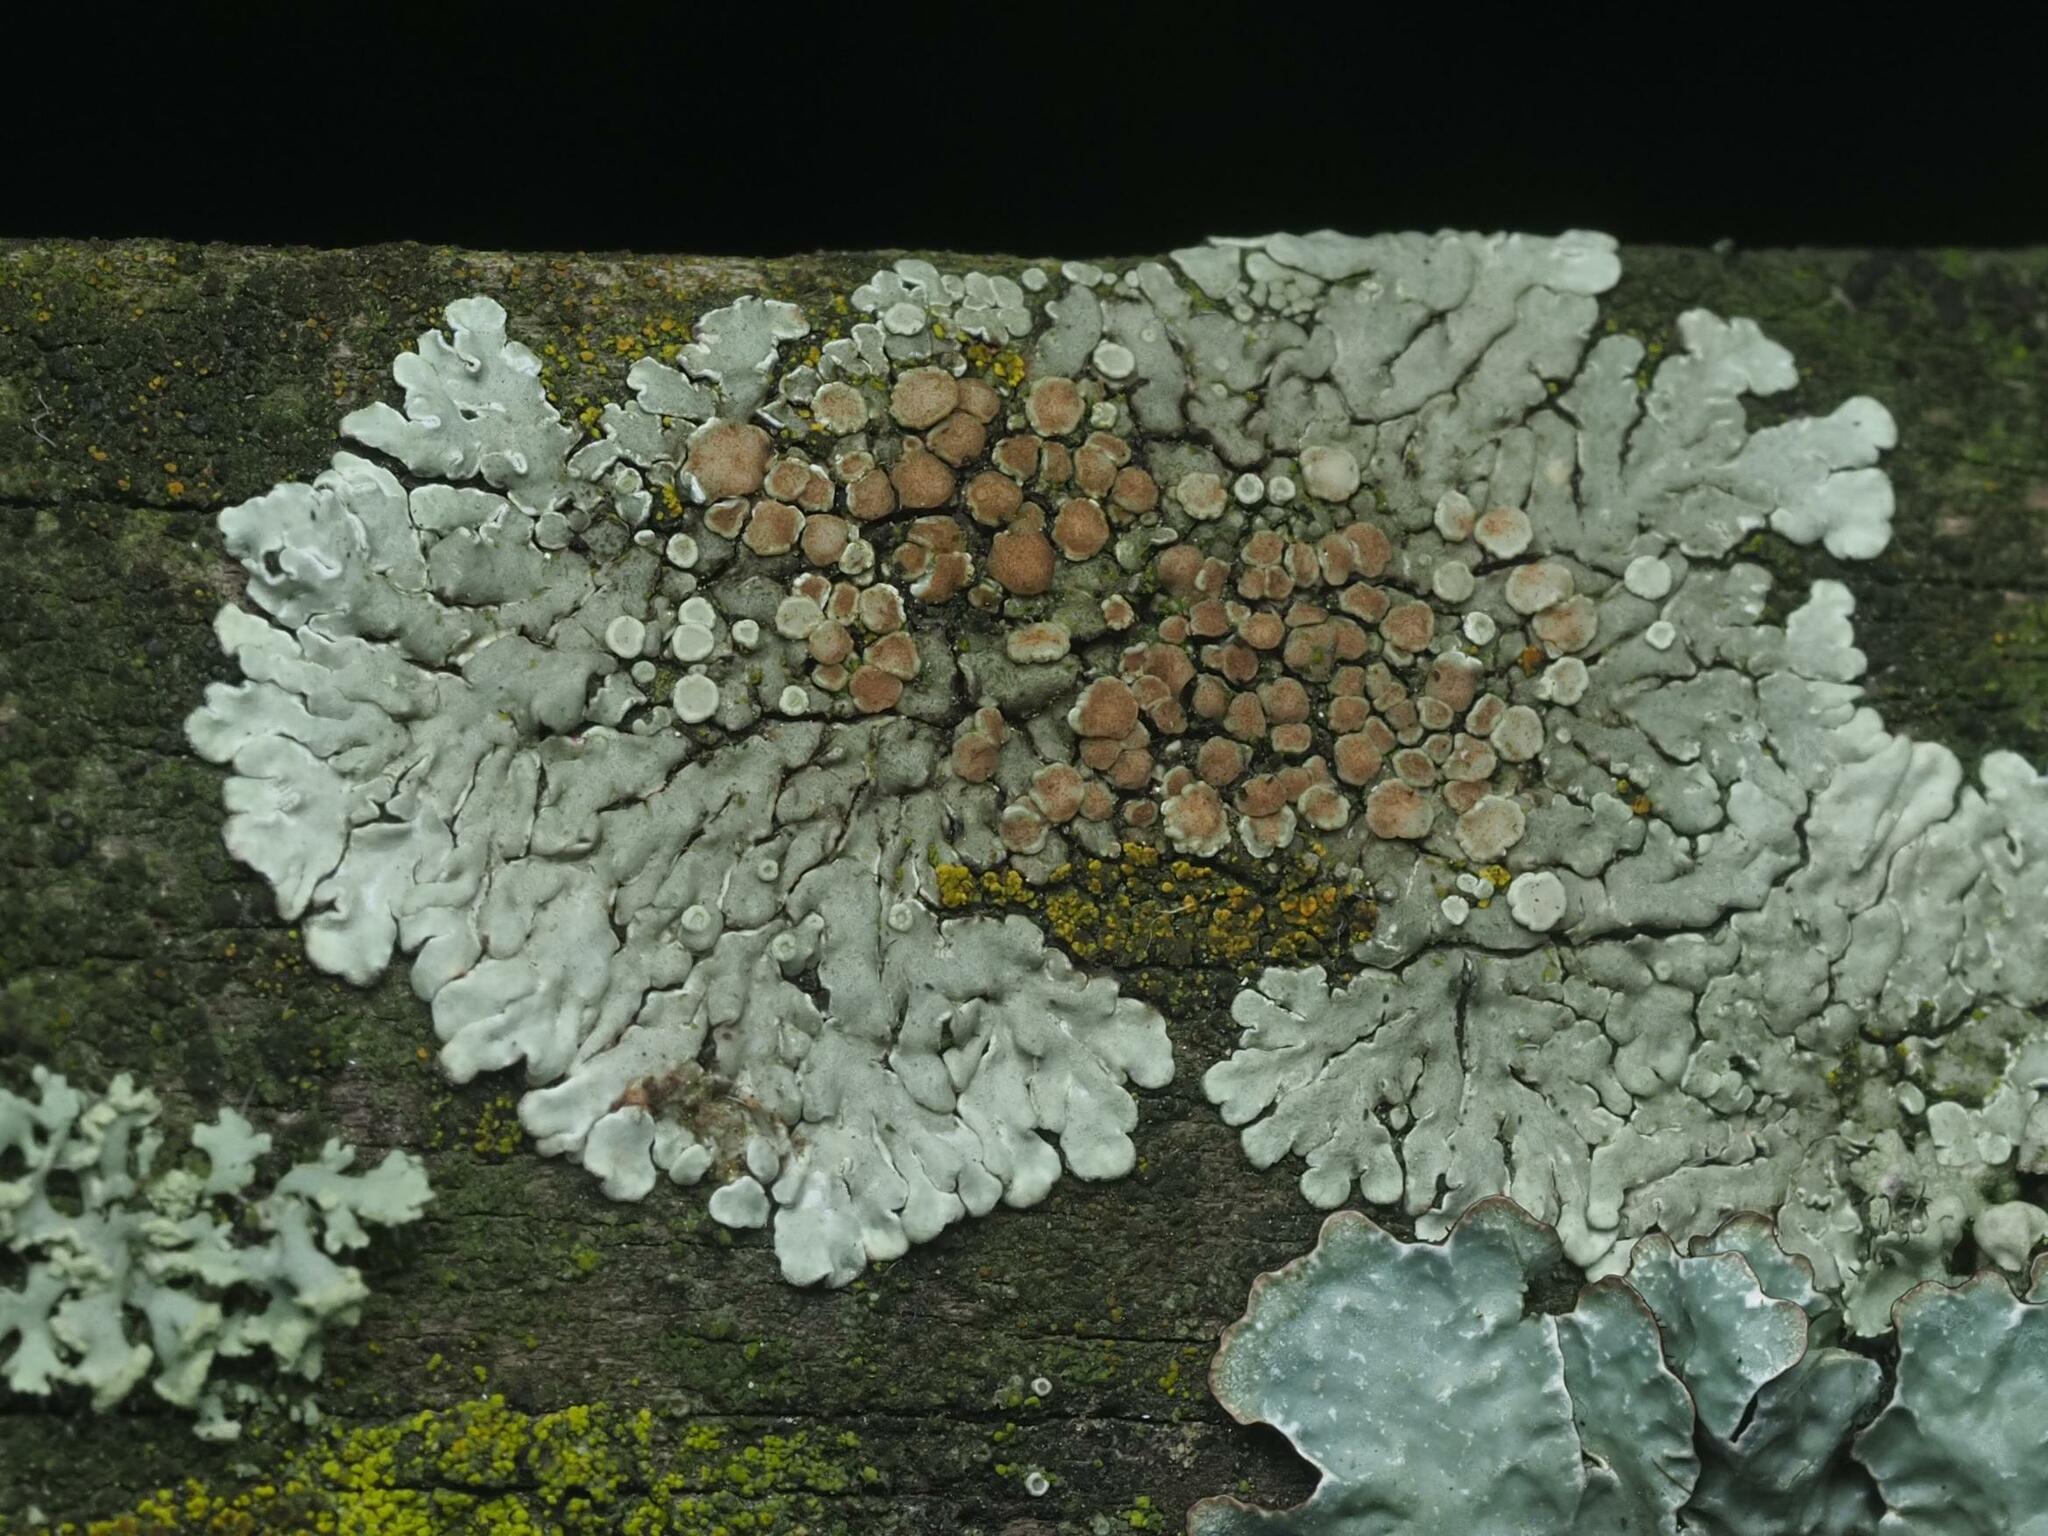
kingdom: Fungi
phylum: Ascomycota
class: Lecanoromycetes
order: Lecanorales
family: Lecanoraceae
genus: Protoparmeliopsis
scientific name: Protoparmeliopsis muralis
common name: Stonewall rim lichen
